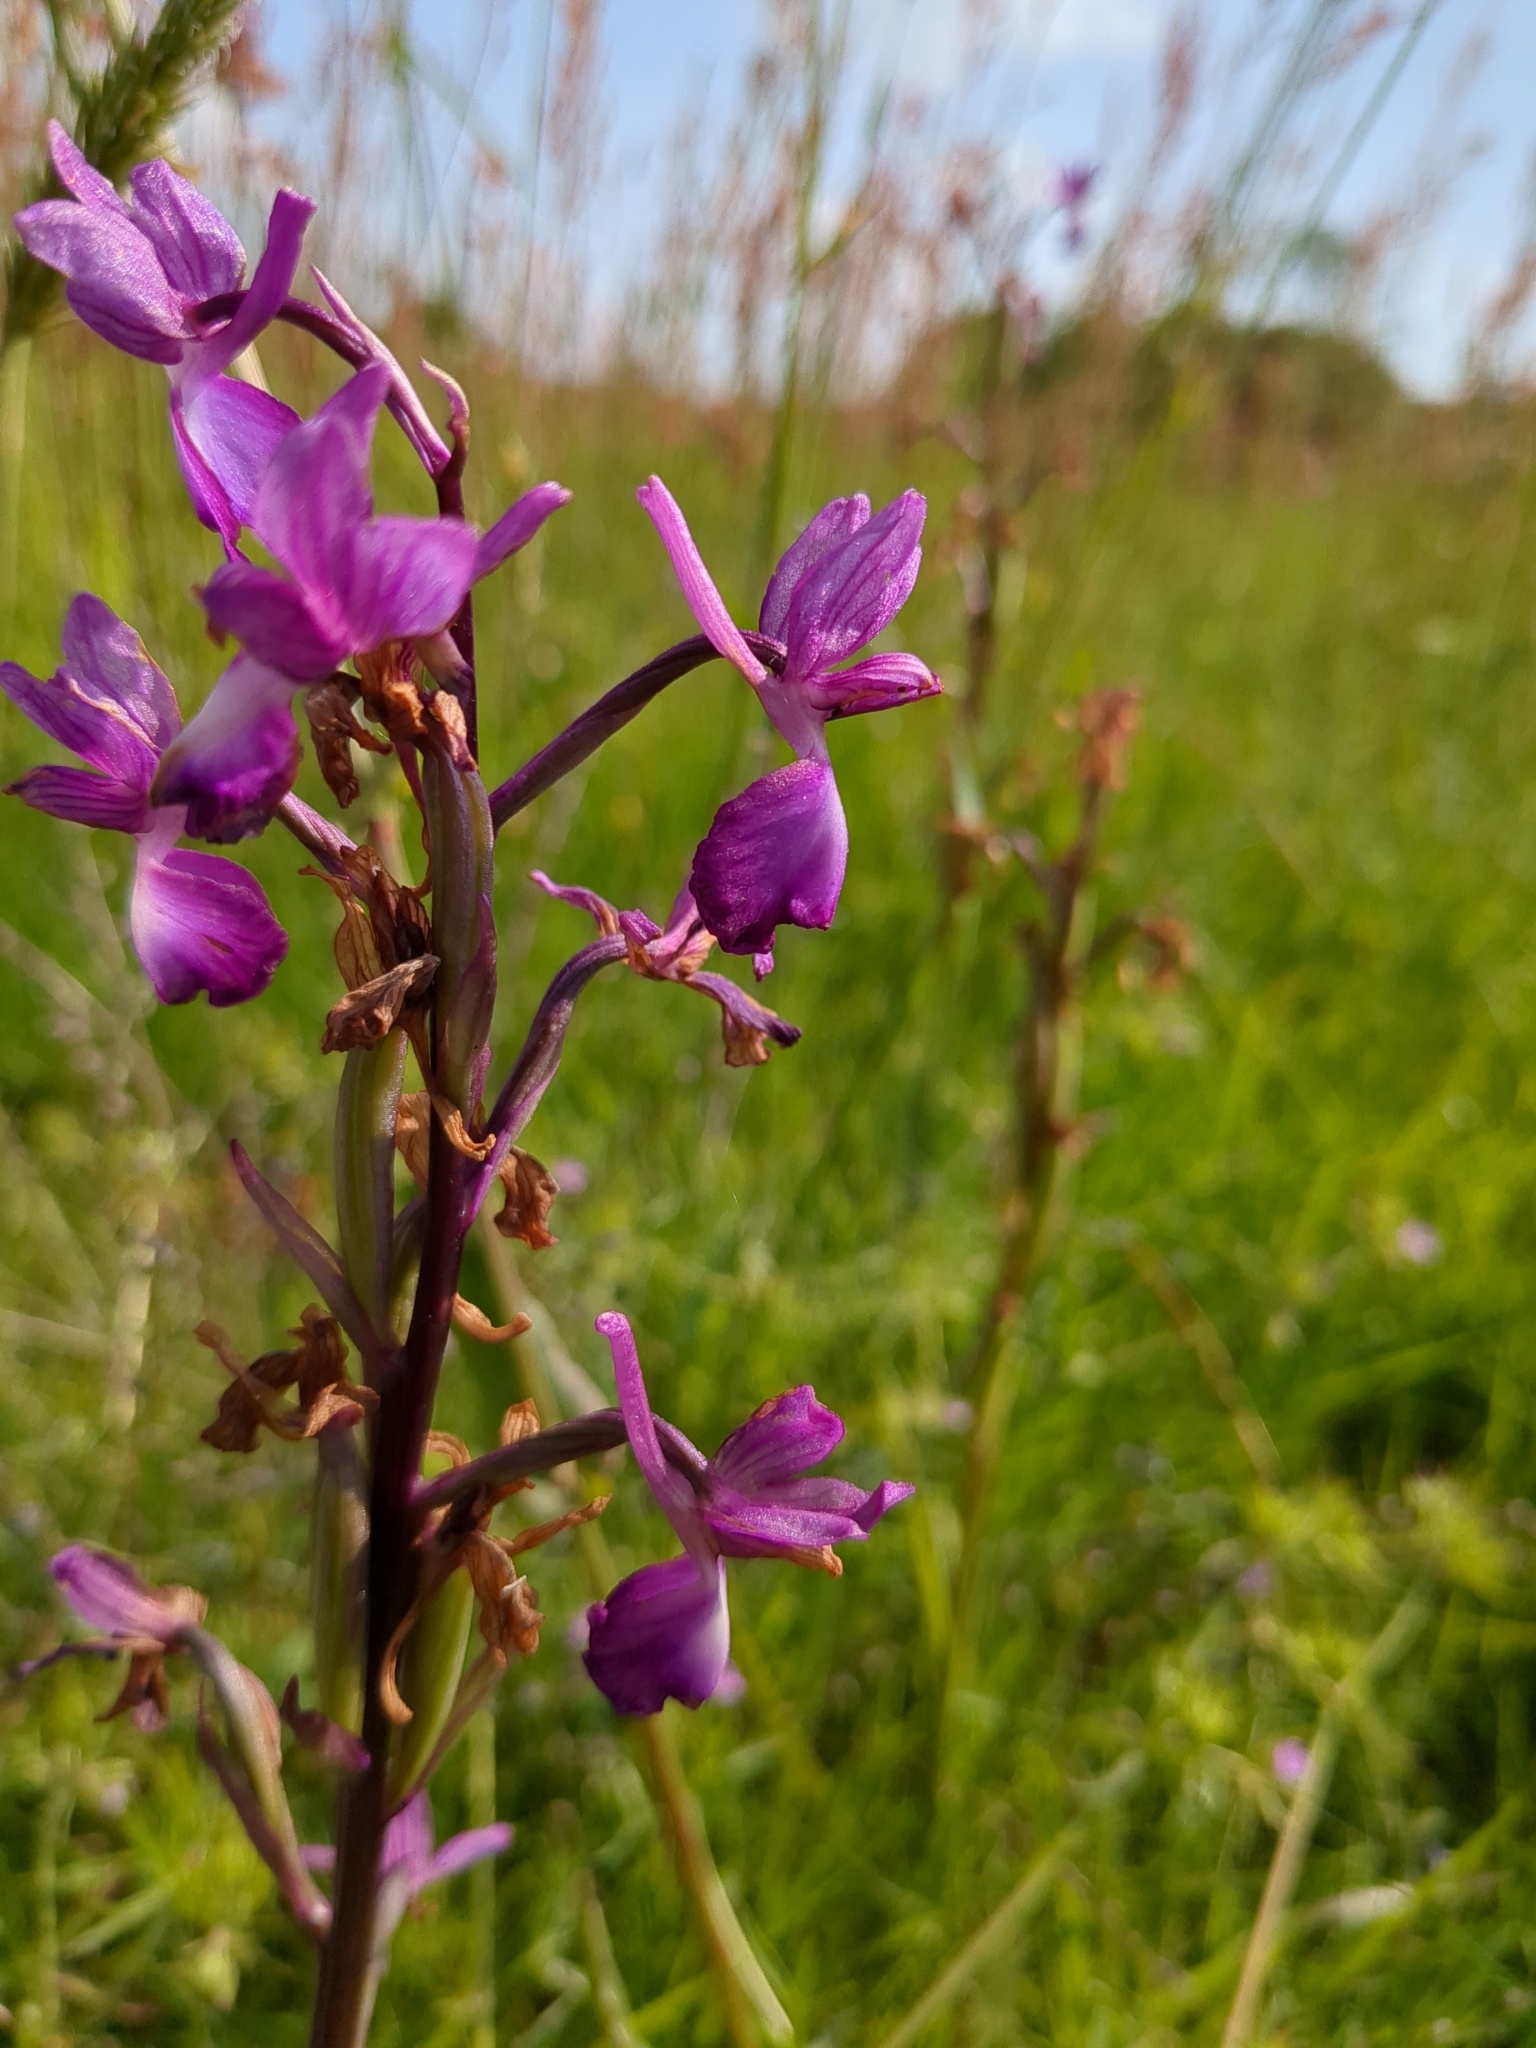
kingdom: Plantae
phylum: Tracheophyta
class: Liliopsida
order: Asparagales
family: Orchidaceae
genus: Anacamptis
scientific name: Anacamptis laxiflora
